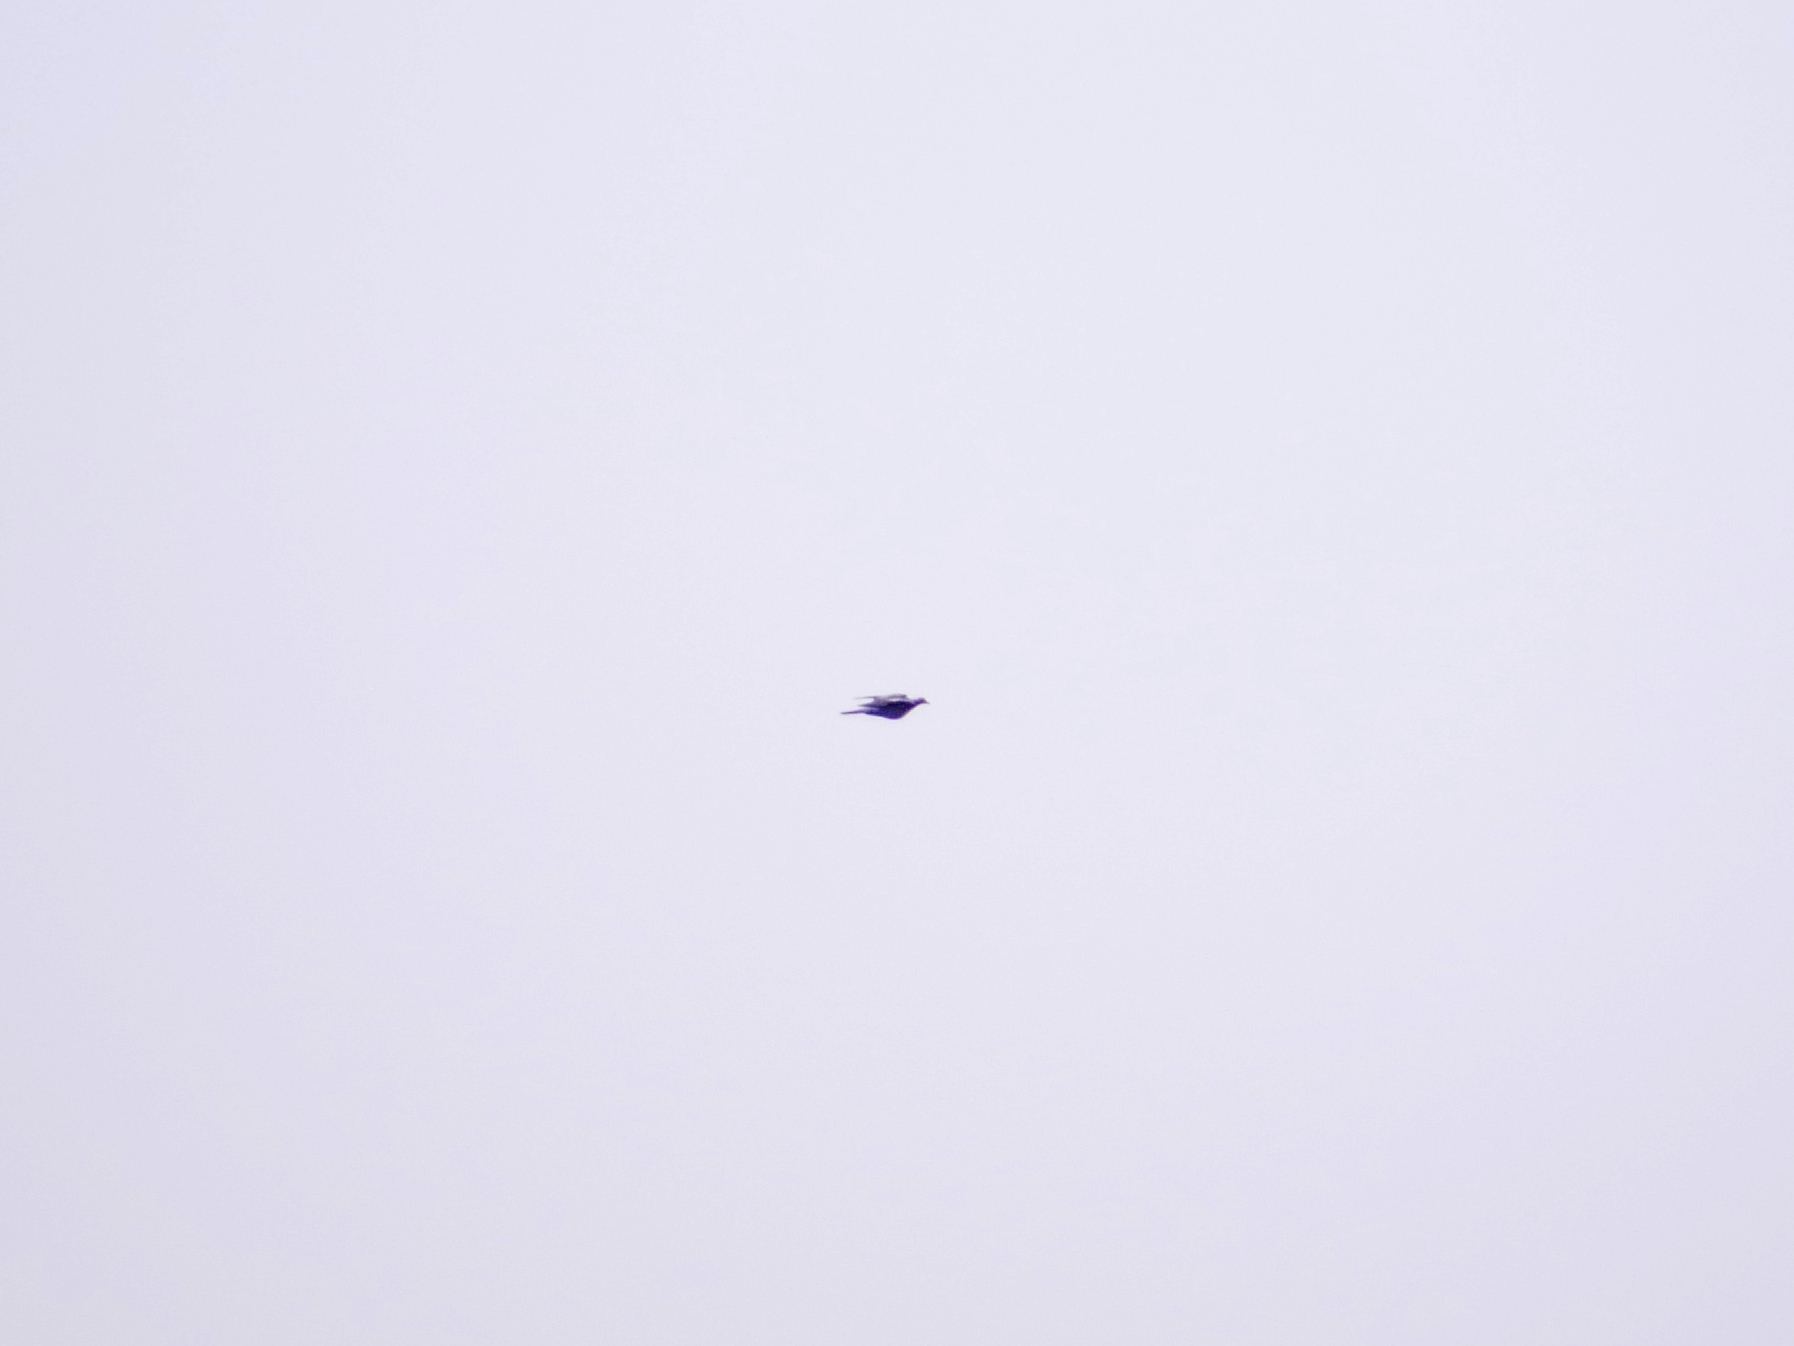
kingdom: Animalia
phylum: Chordata
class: Aves
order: Columbiformes
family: Columbidae
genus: Columba
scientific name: Columba palumbus
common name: Common wood pigeon
